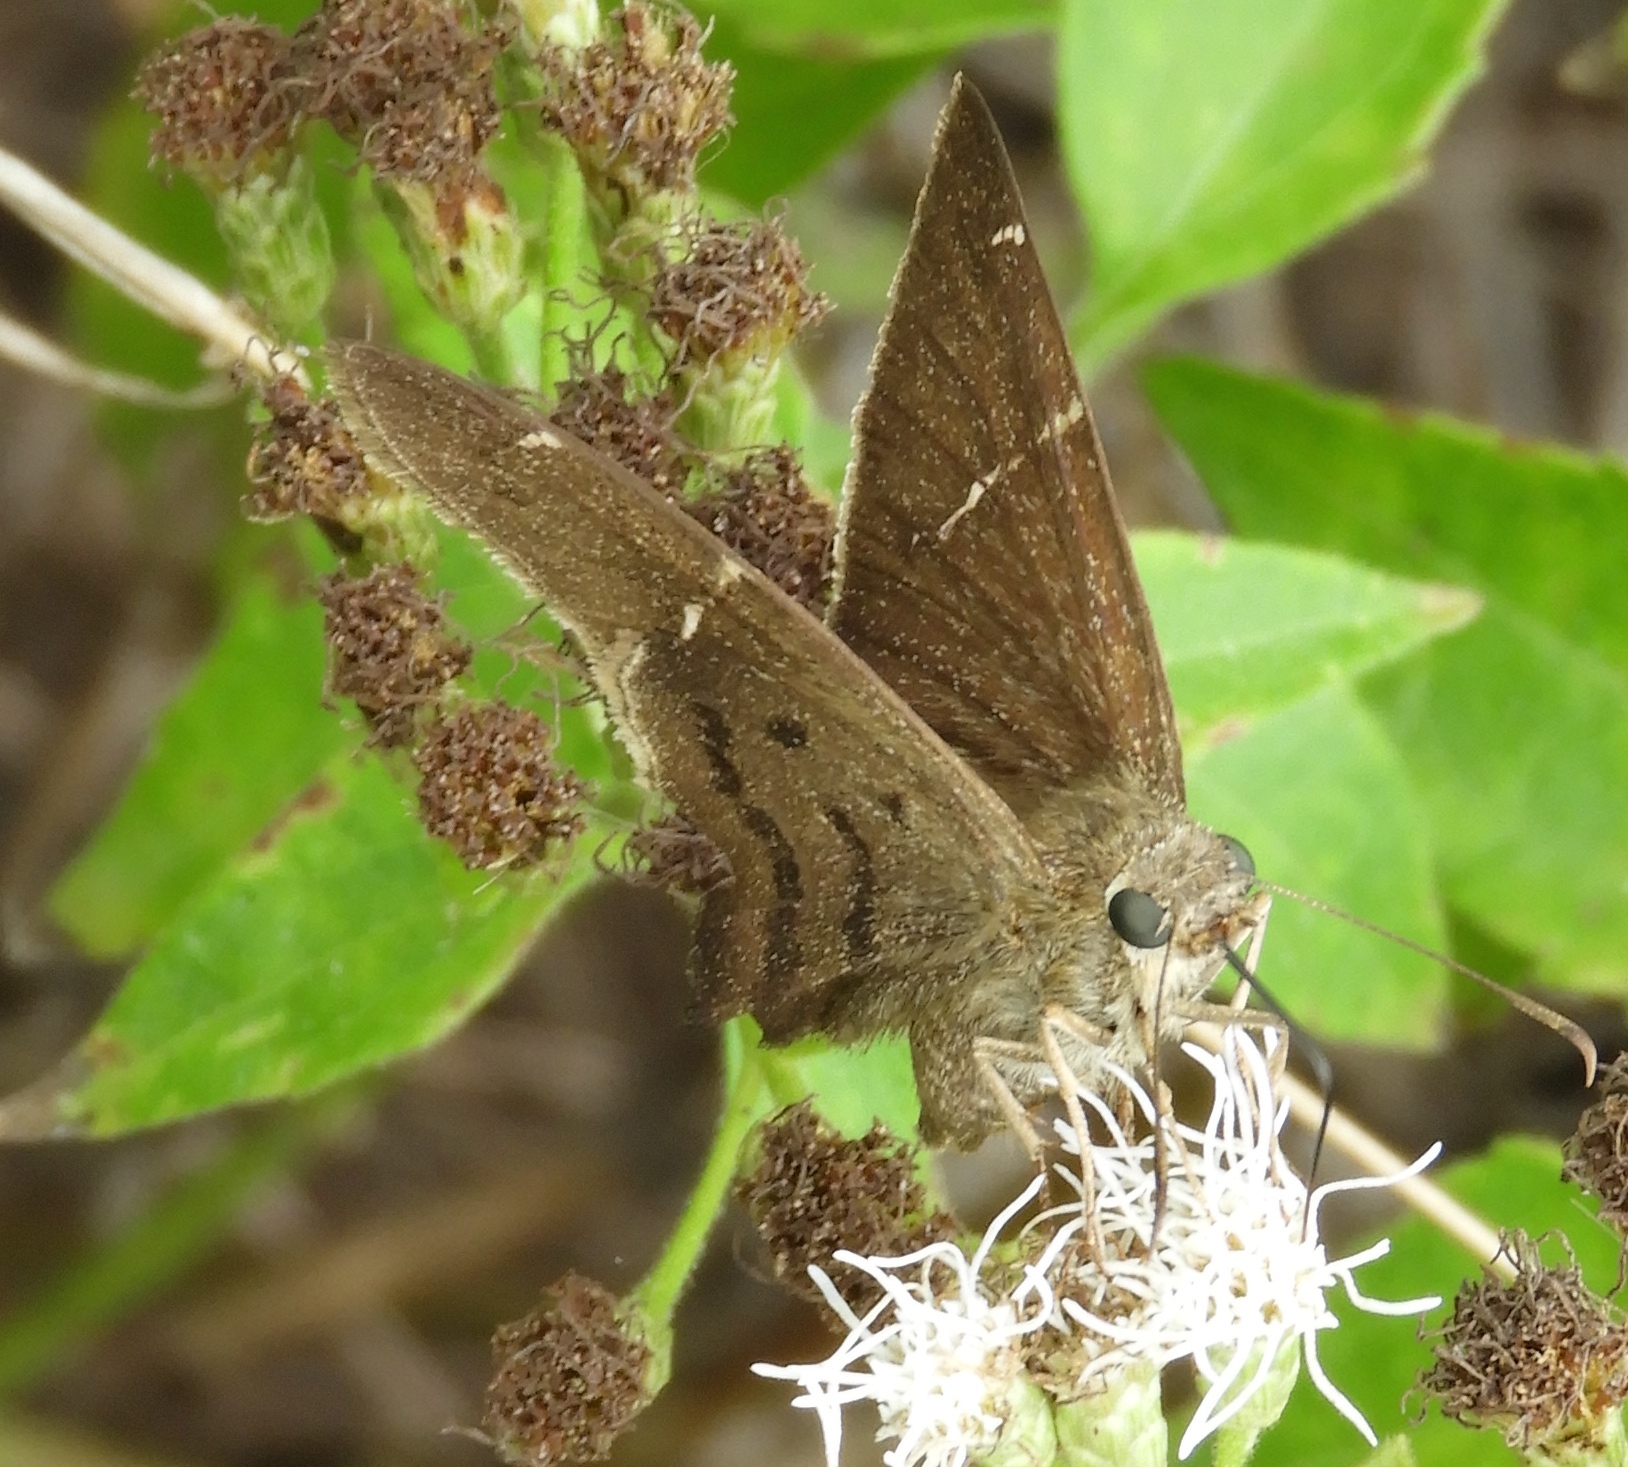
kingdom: Animalia
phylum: Arthropoda
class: Insecta
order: Lepidoptera
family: Hesperiidae
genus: Urbanus
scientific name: Urbanus procne
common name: Brown longtail
